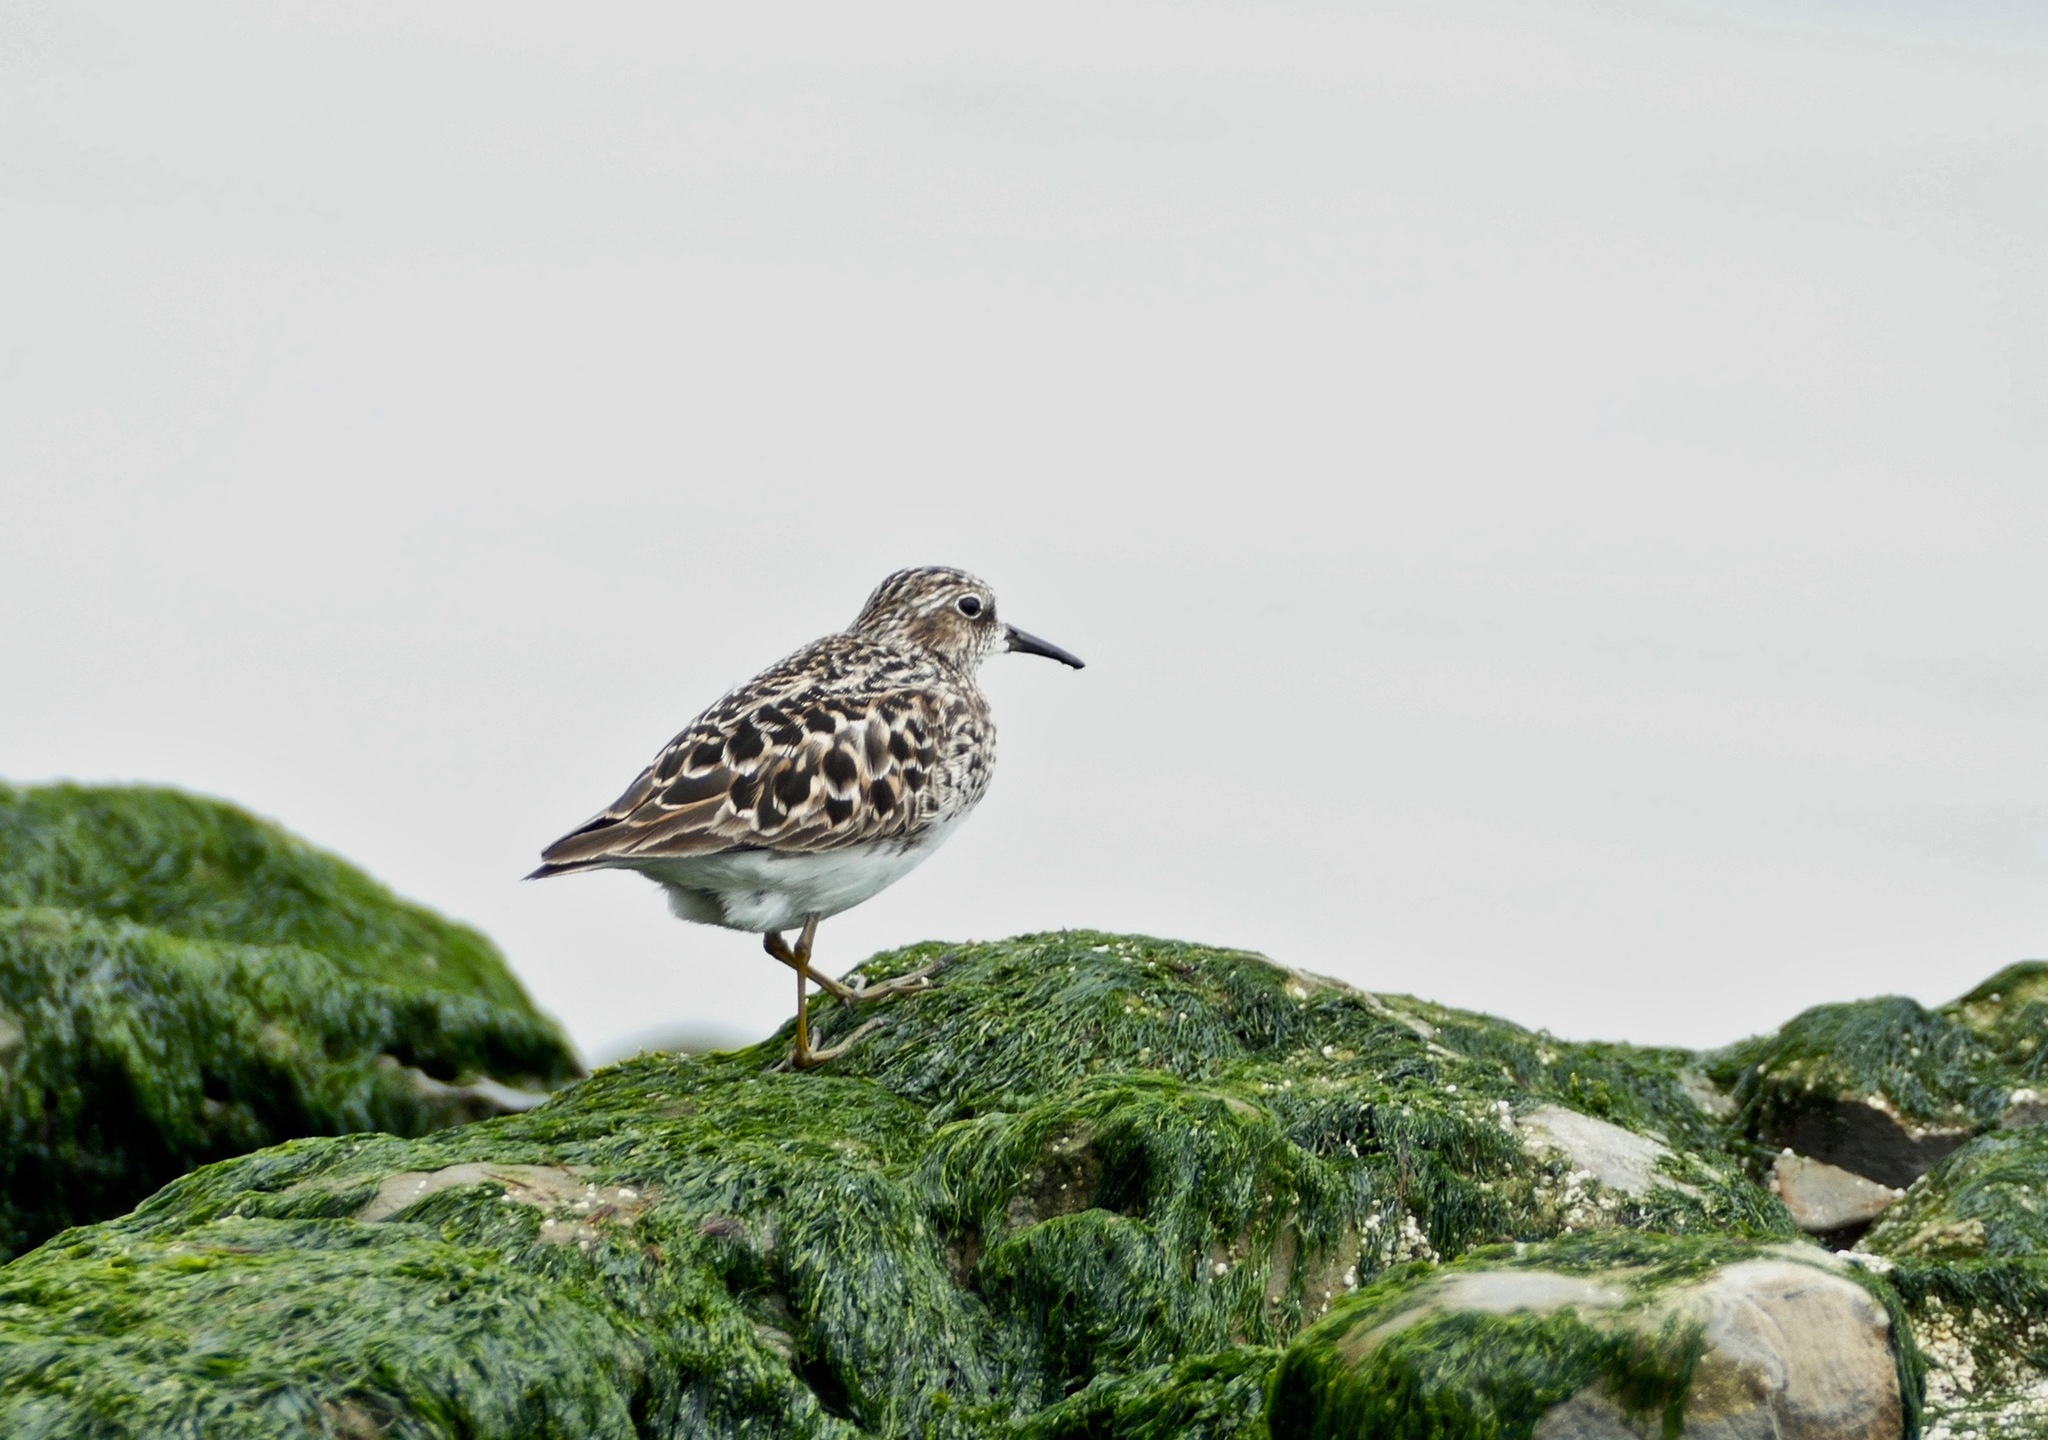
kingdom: Animalia
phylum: Chordata
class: Aves
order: Charadriiformes
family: Scolopacidae
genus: Calidris
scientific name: Calidris minutilla
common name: Least sandpiper
